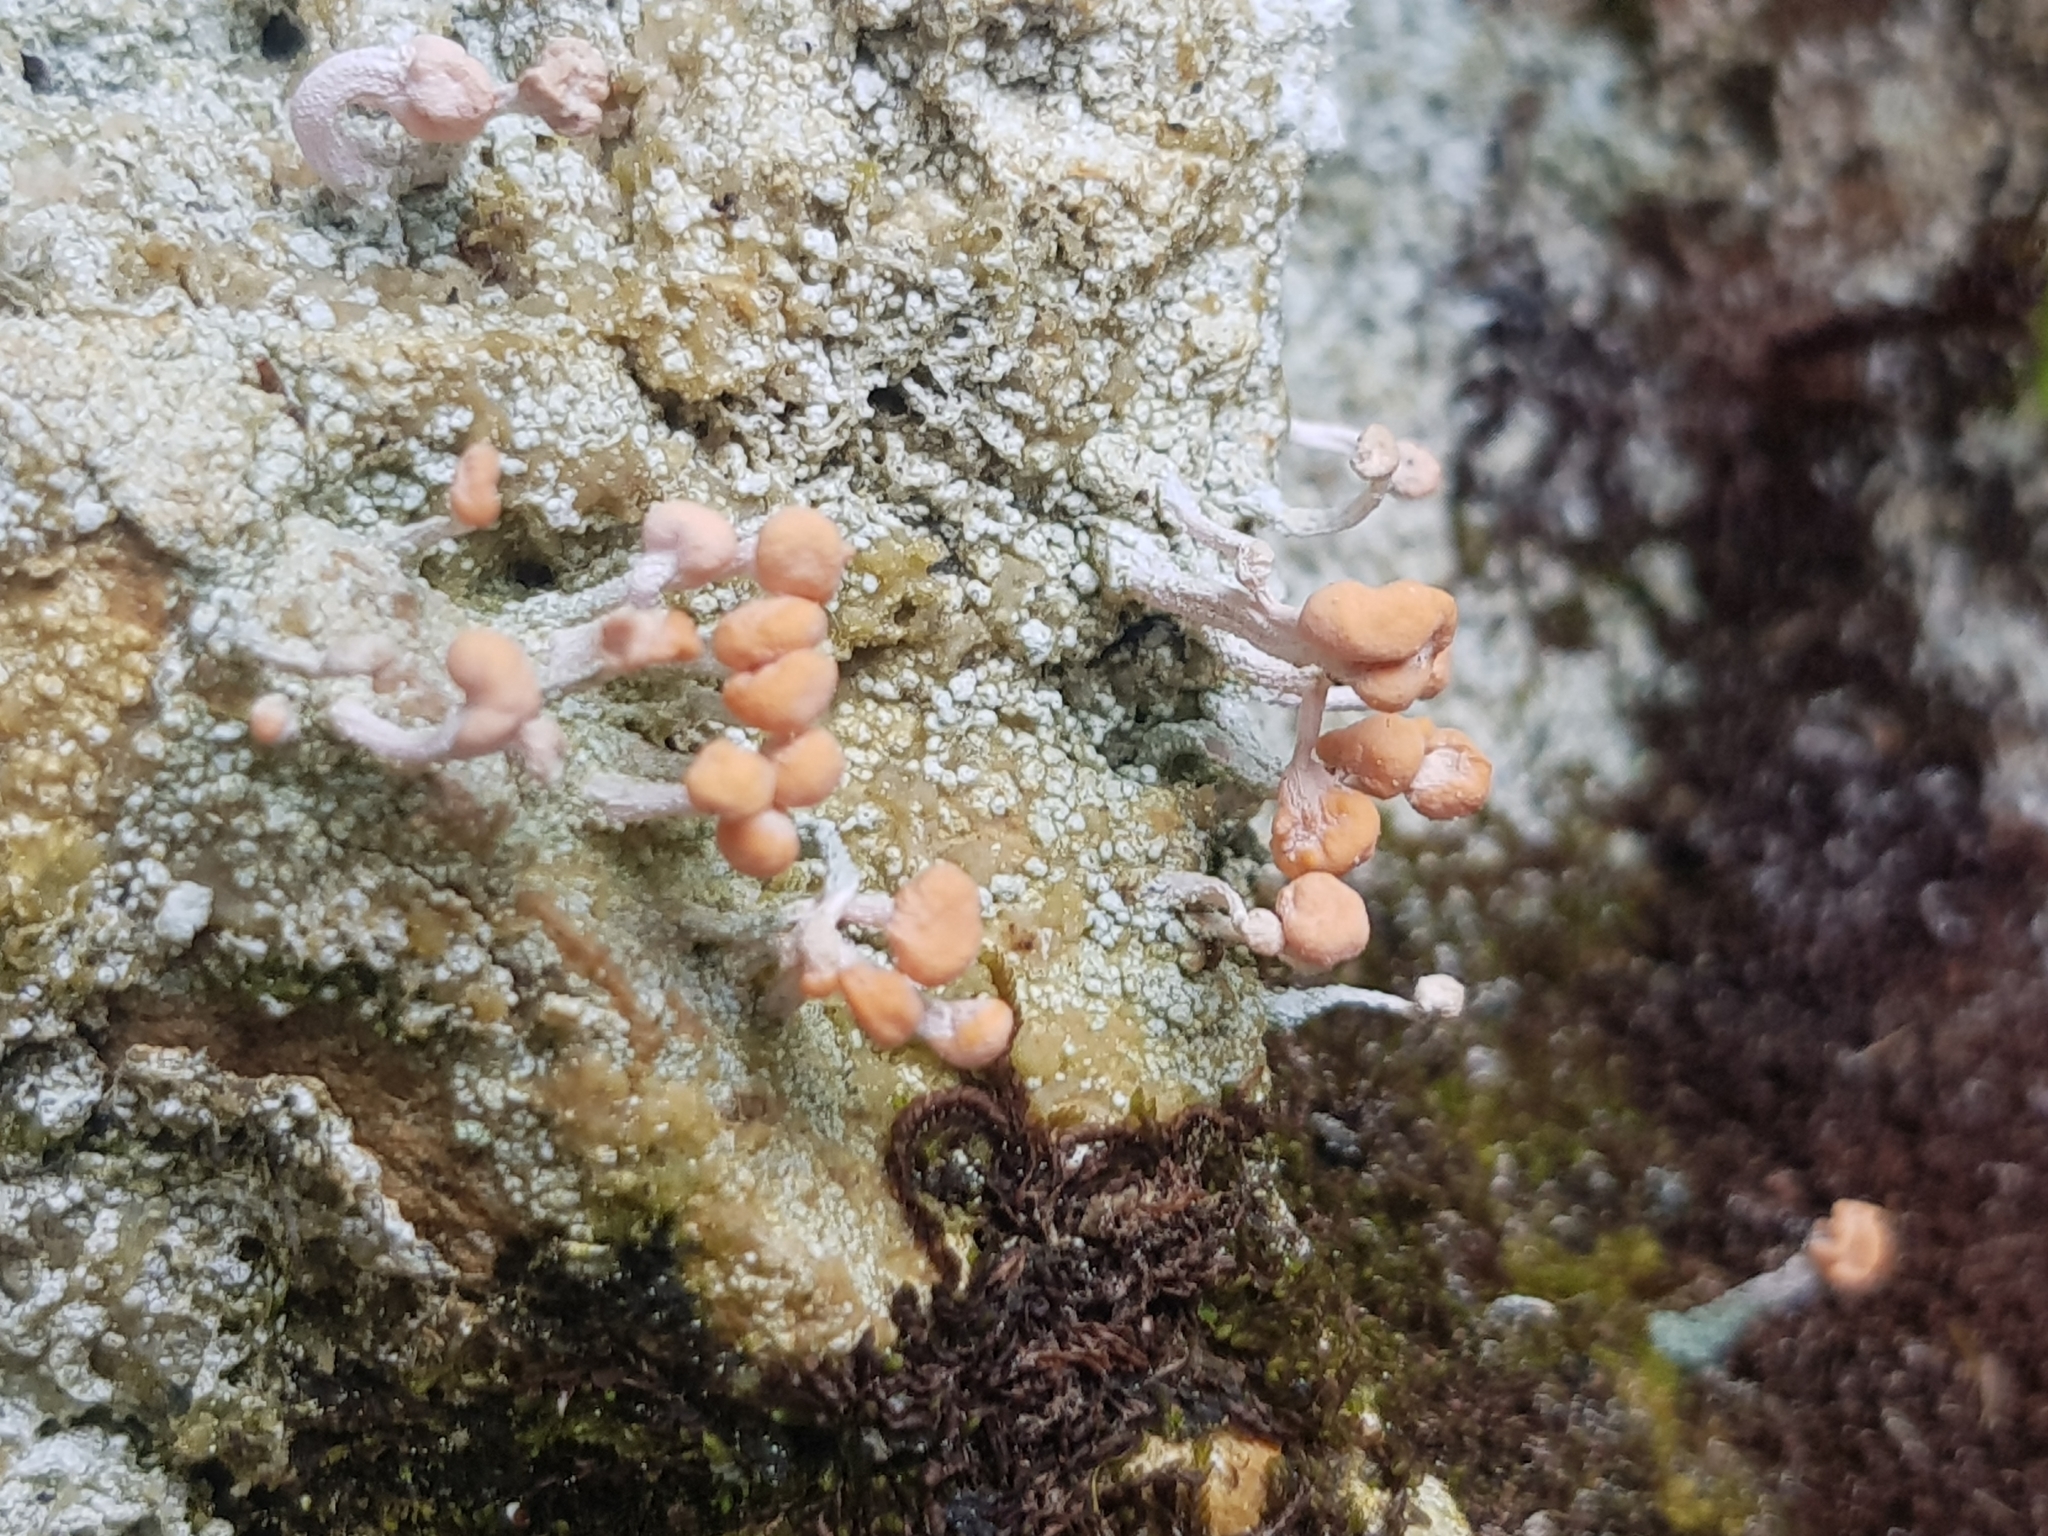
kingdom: Fungi
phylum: Ascomycota
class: Lecanoromycetes
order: Pertusariales
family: Icmadophilaceae
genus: Dibaeis
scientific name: Dibaeis arcuata
